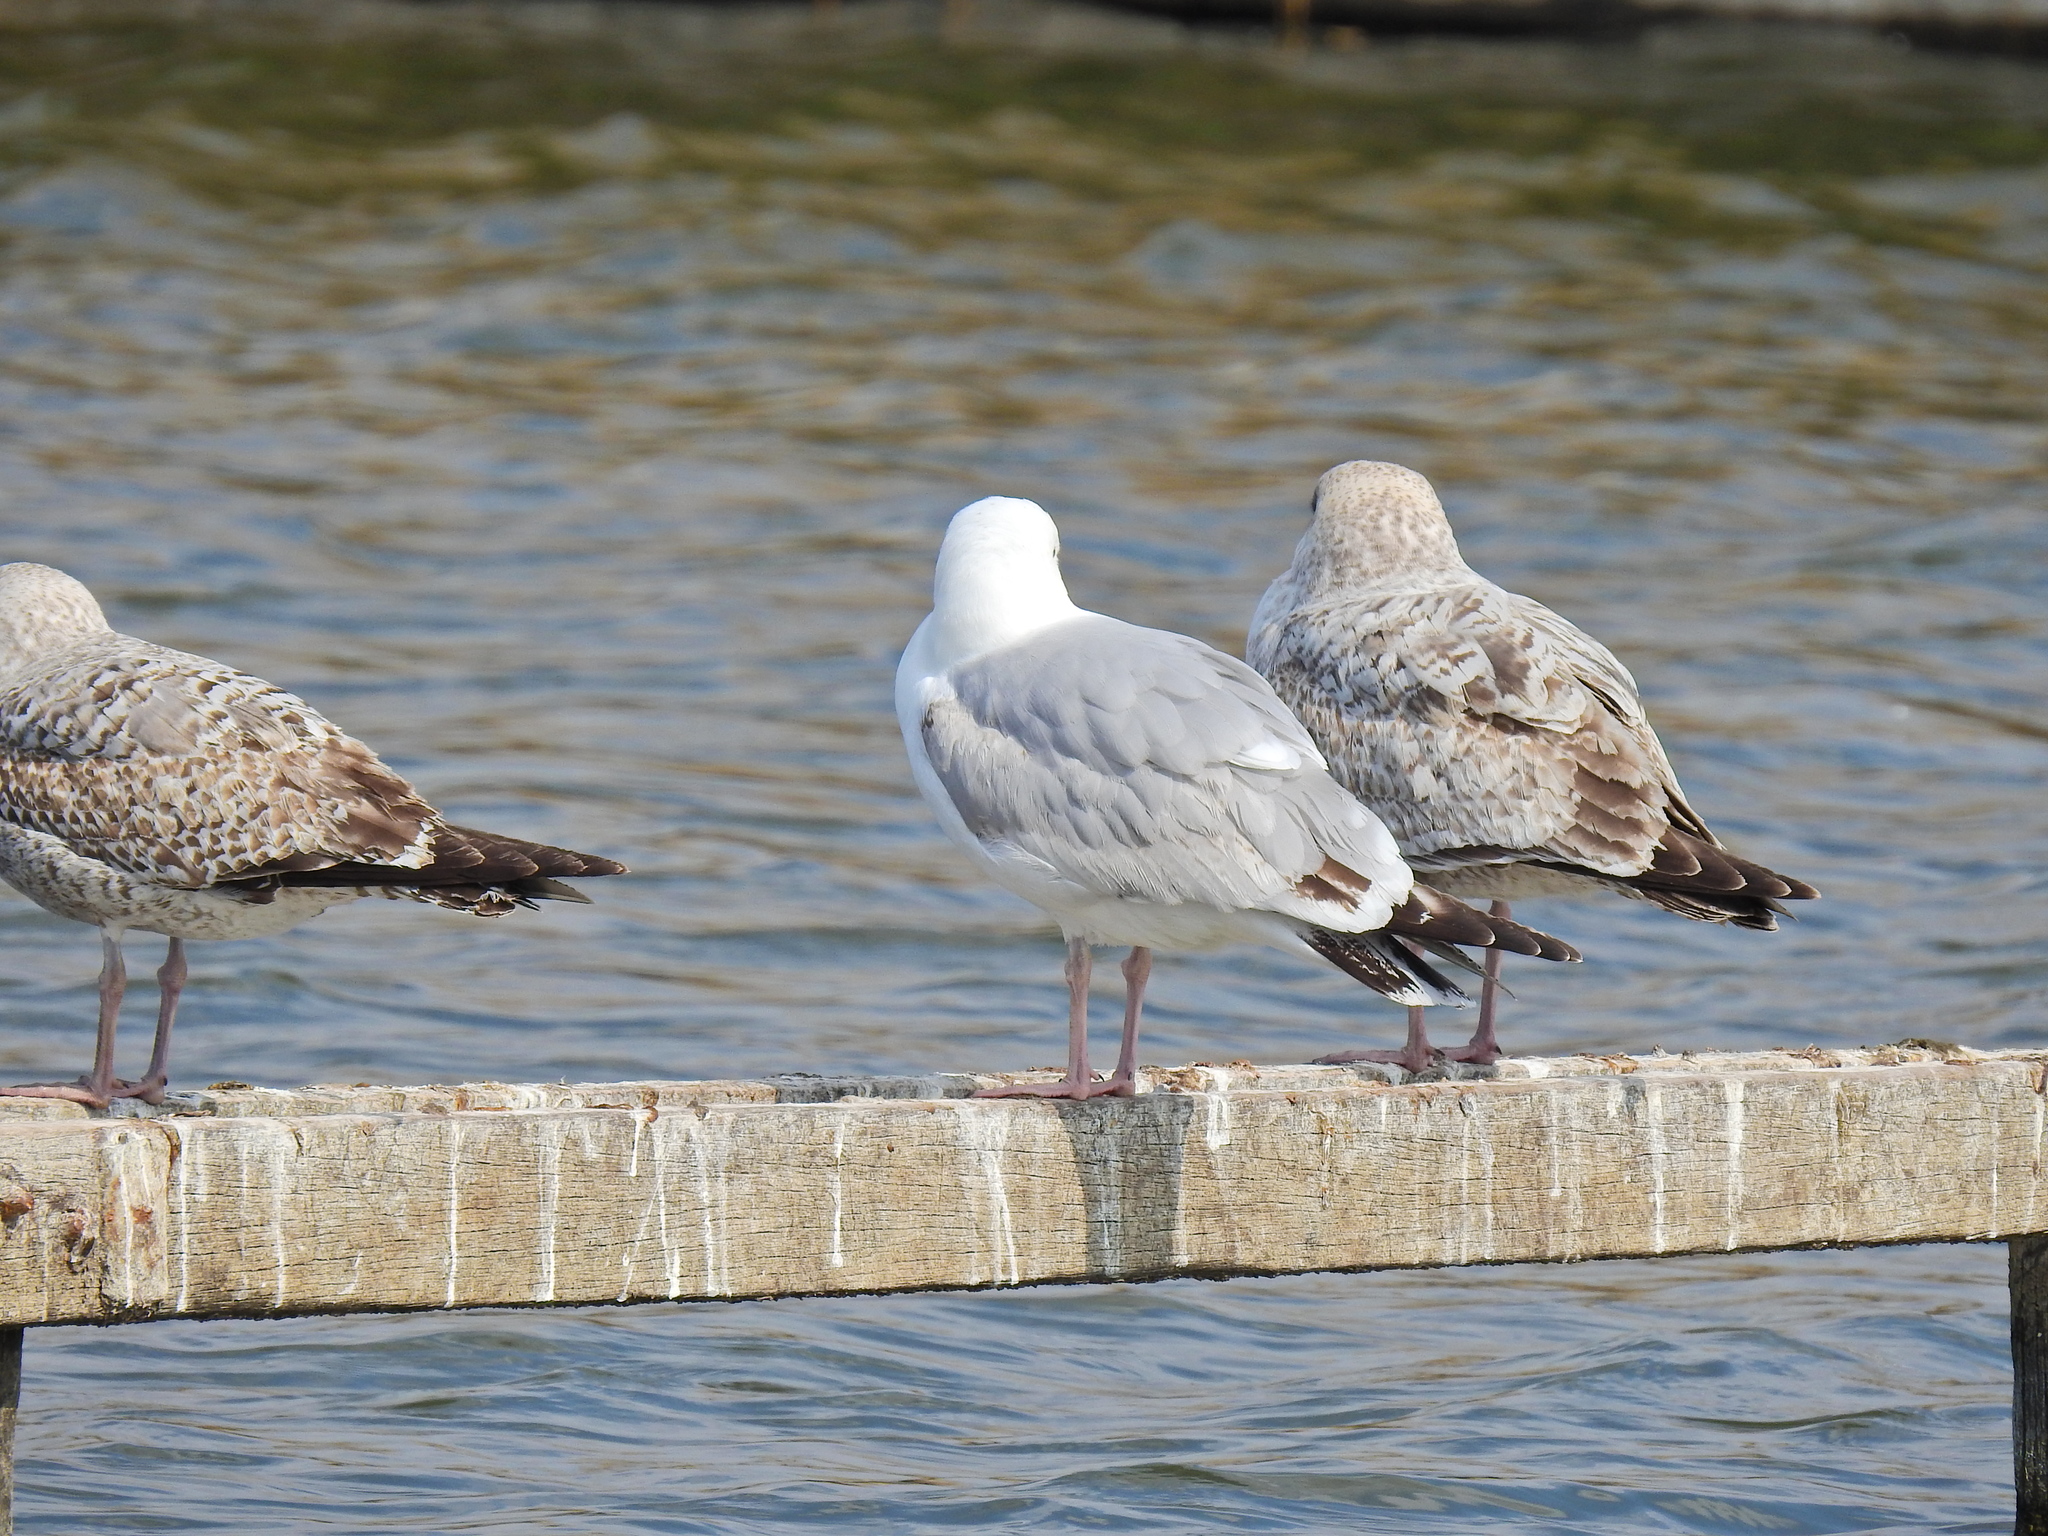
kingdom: Animalia
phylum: Chordata
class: Aves
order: Charadriiformes
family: Laridae
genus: Larus
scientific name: Larus argentatus
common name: Herring gull
